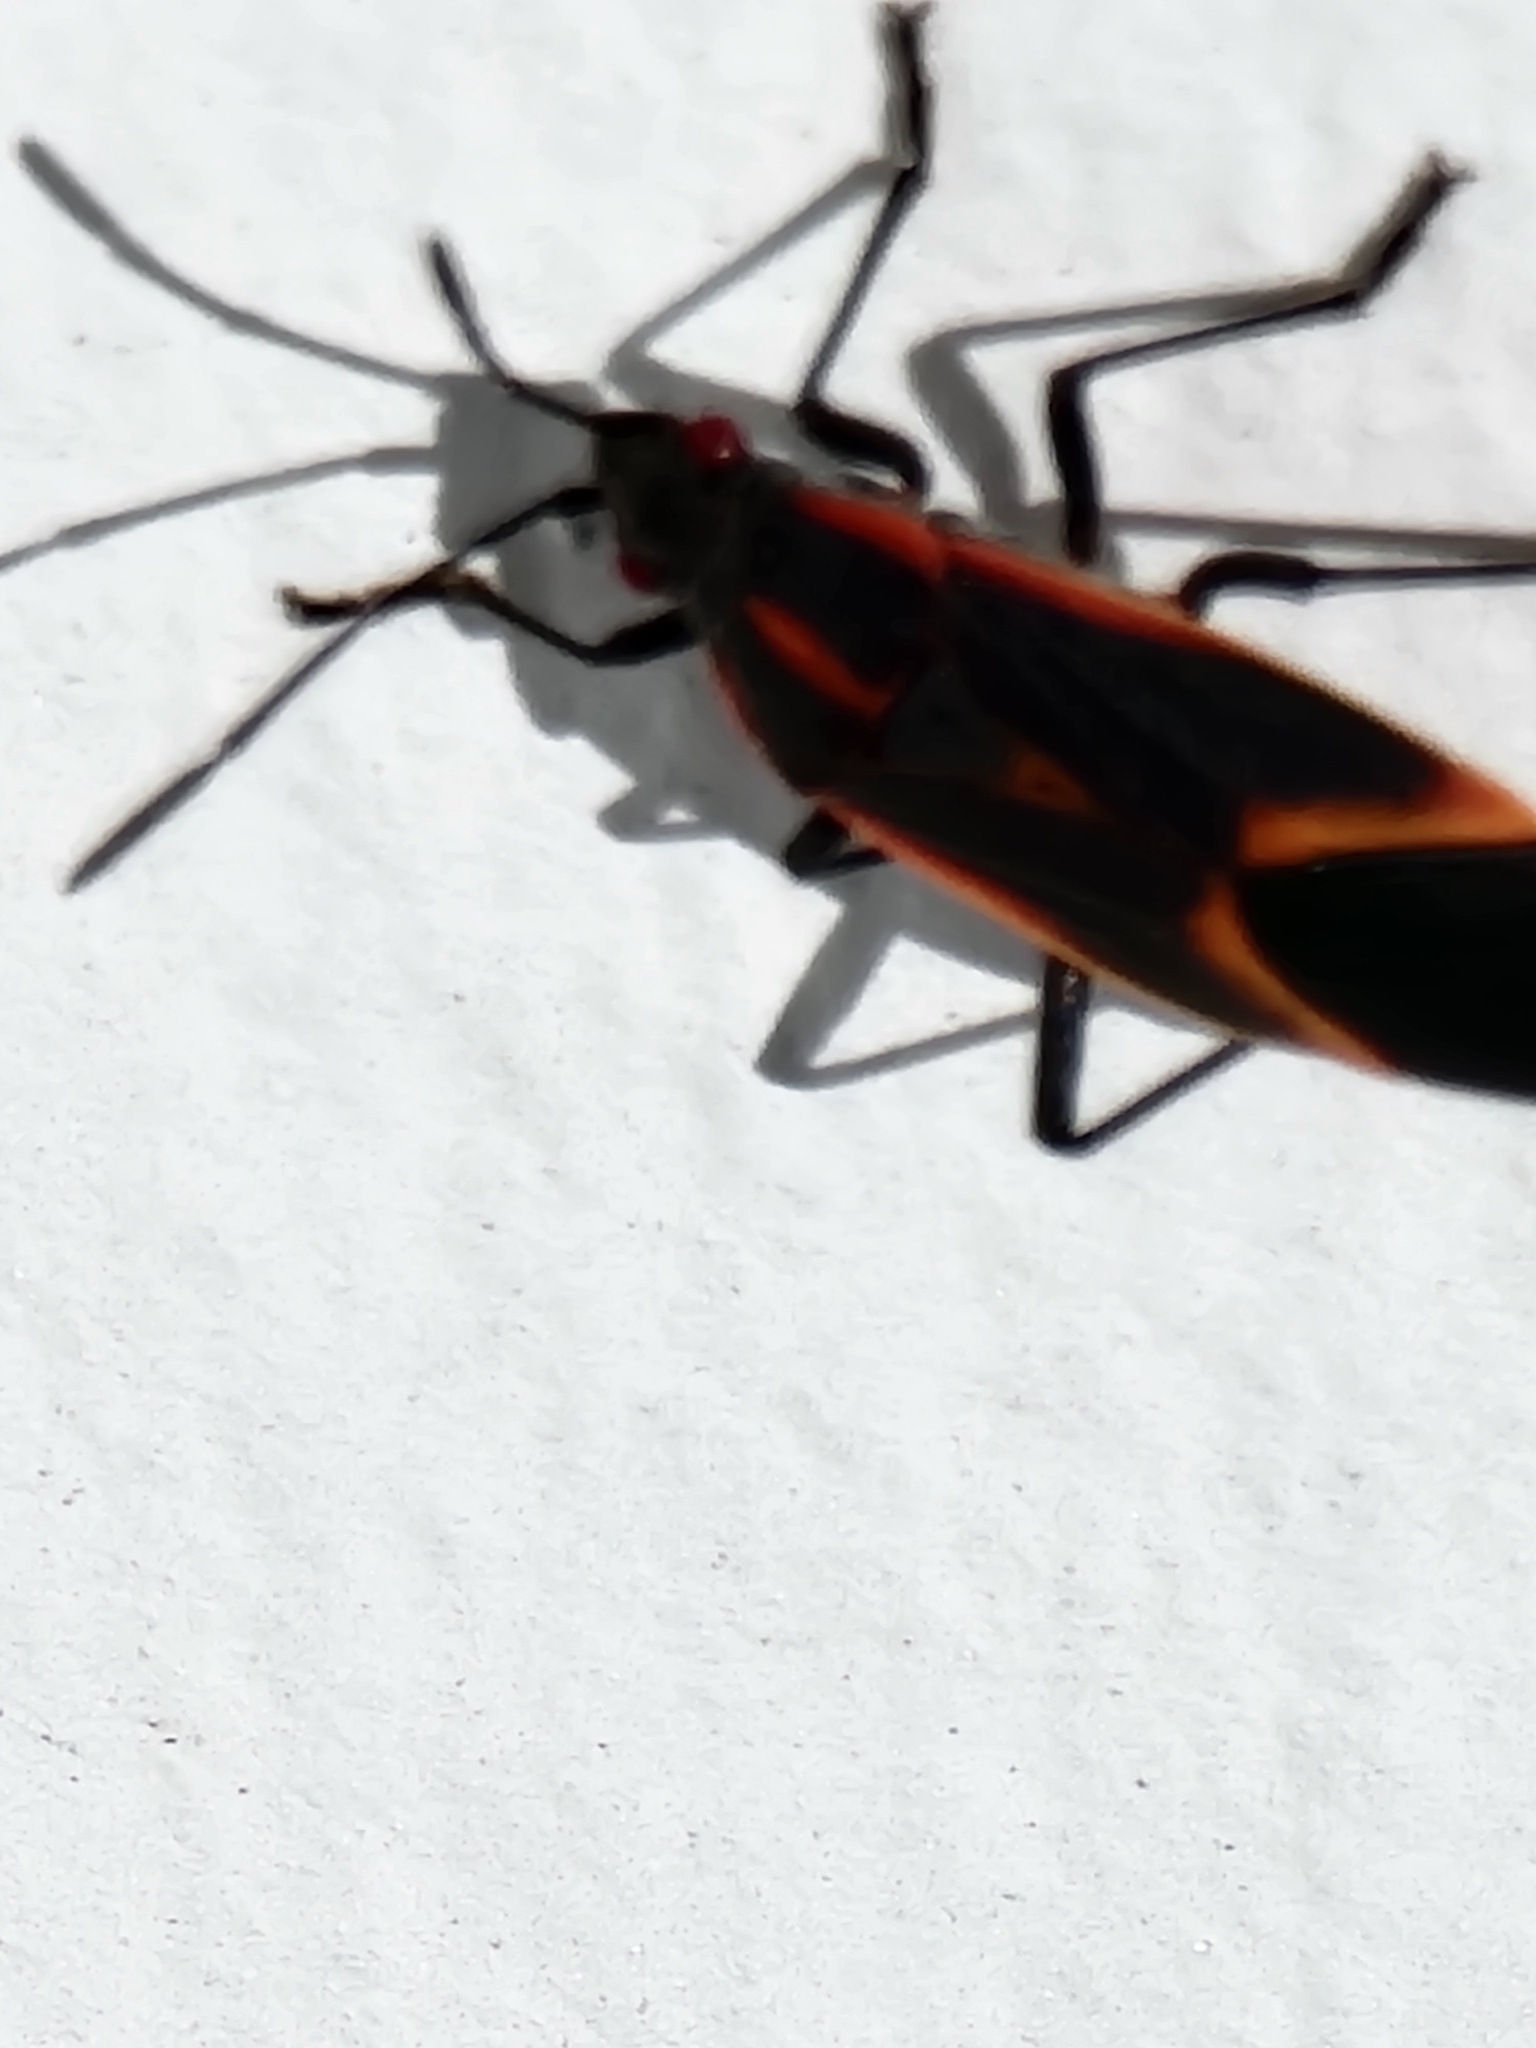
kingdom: Animalia
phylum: Arthropoda
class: Insecta
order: Hemiptera
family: Rhopalidae
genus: Boisea
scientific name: Boisea trivittata
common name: Boxelder bug
